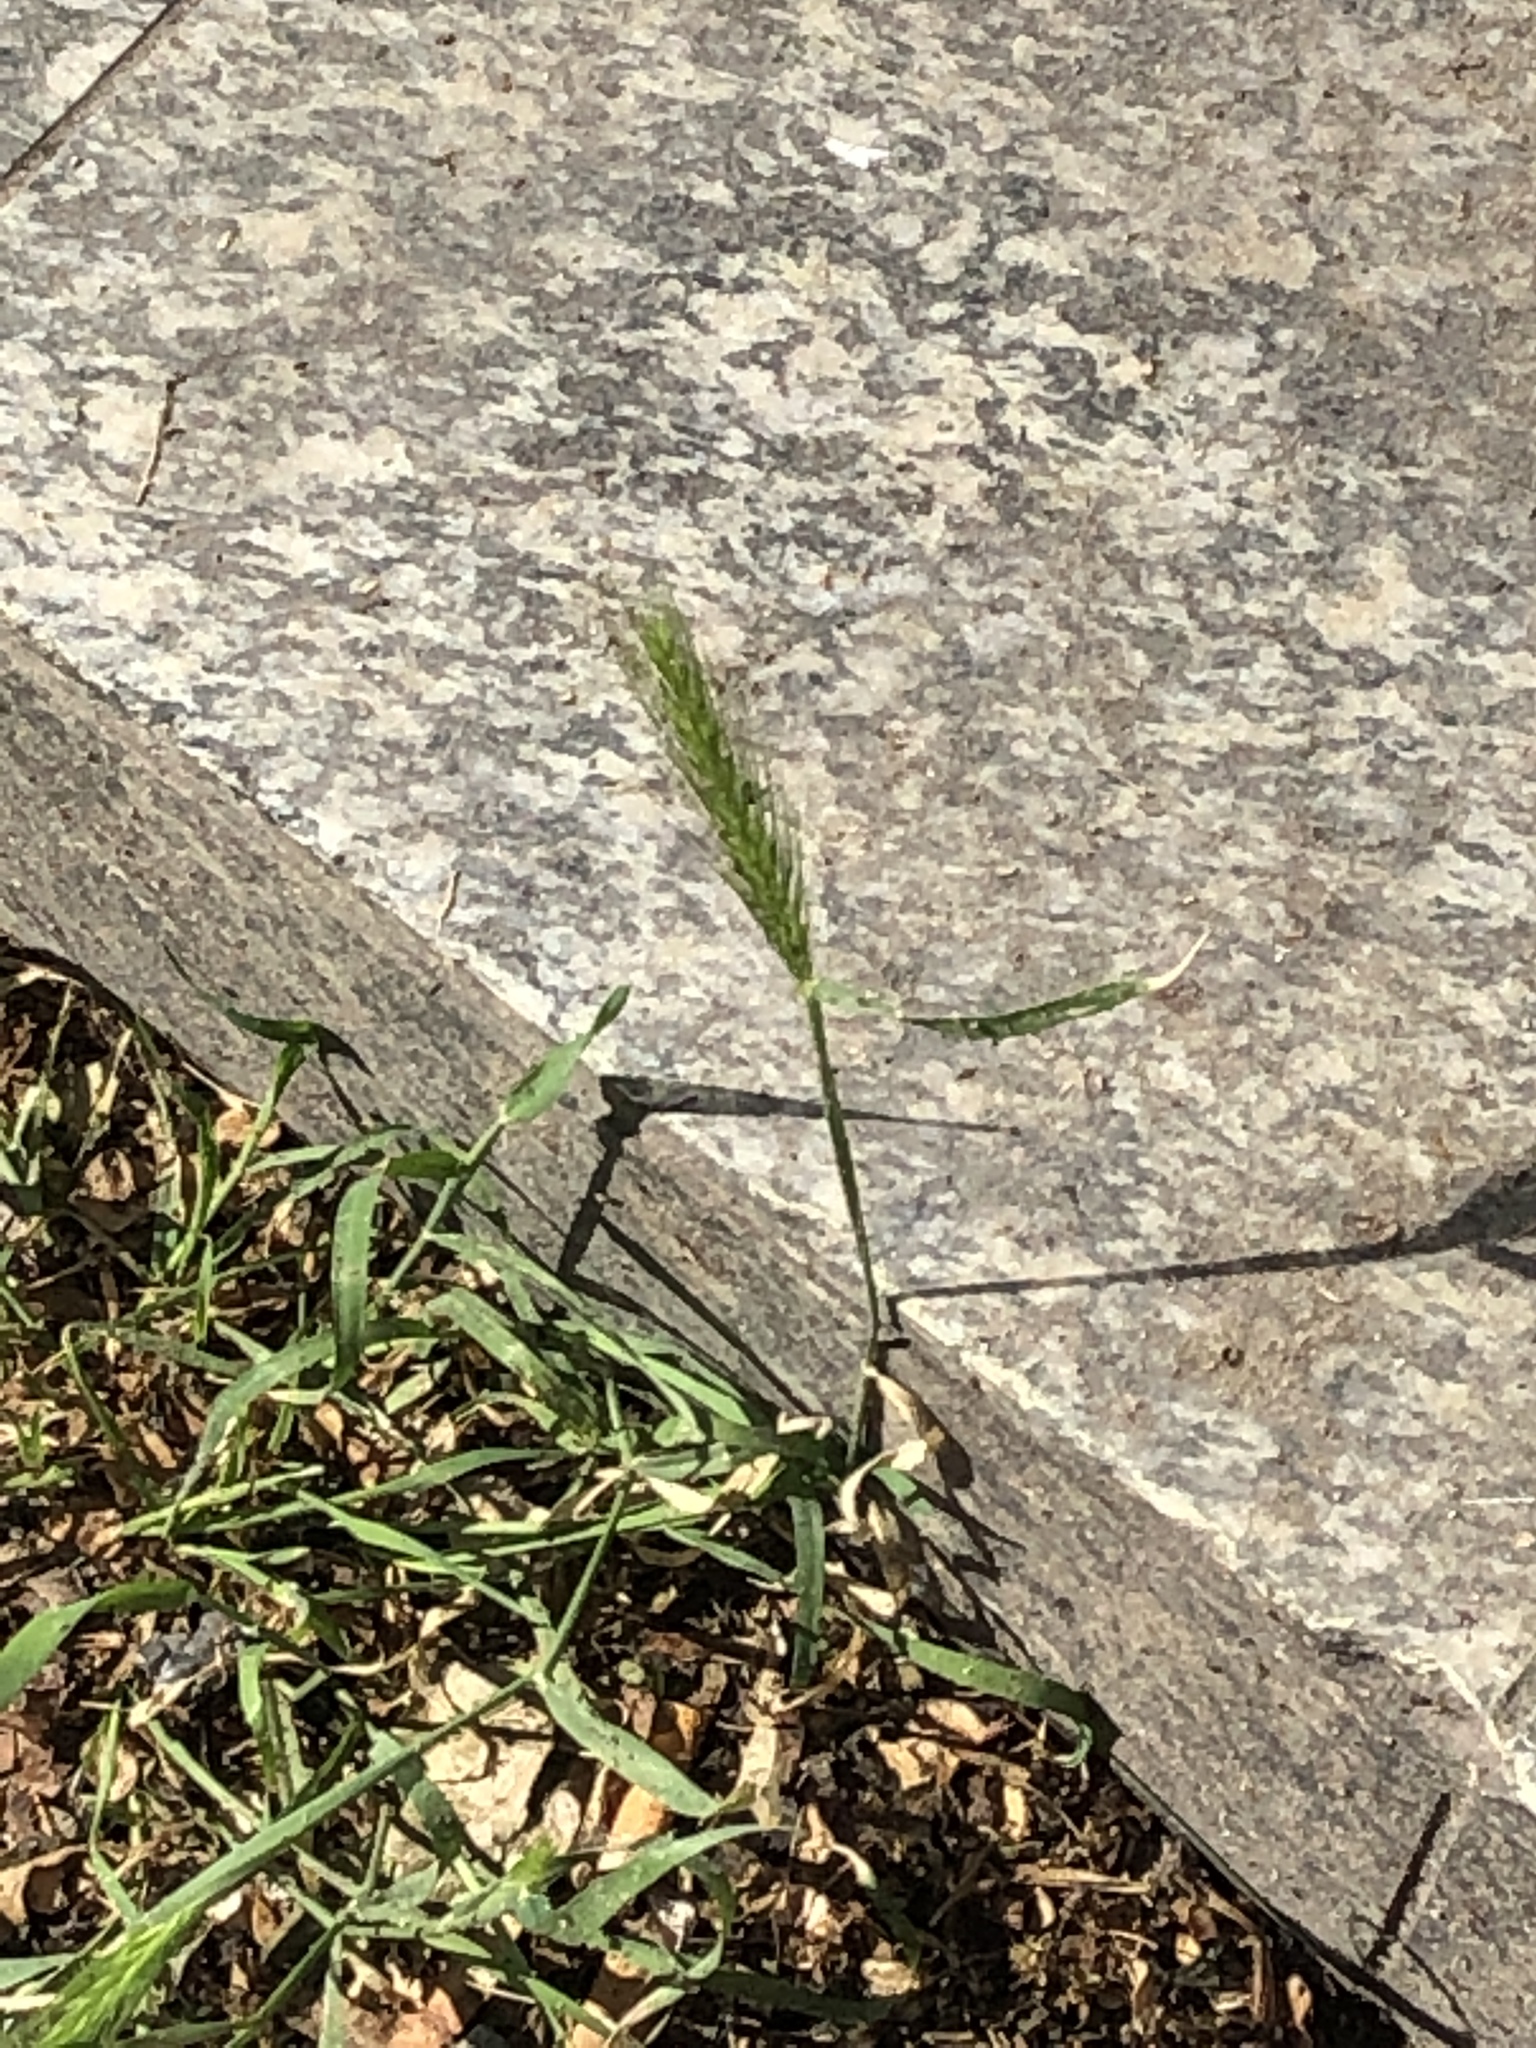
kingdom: Plantae
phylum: Tracheophyta
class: Liliopsida
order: Poales
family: Poaceae
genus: Hordeum
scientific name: Hordeum murinum
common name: Wall barley
